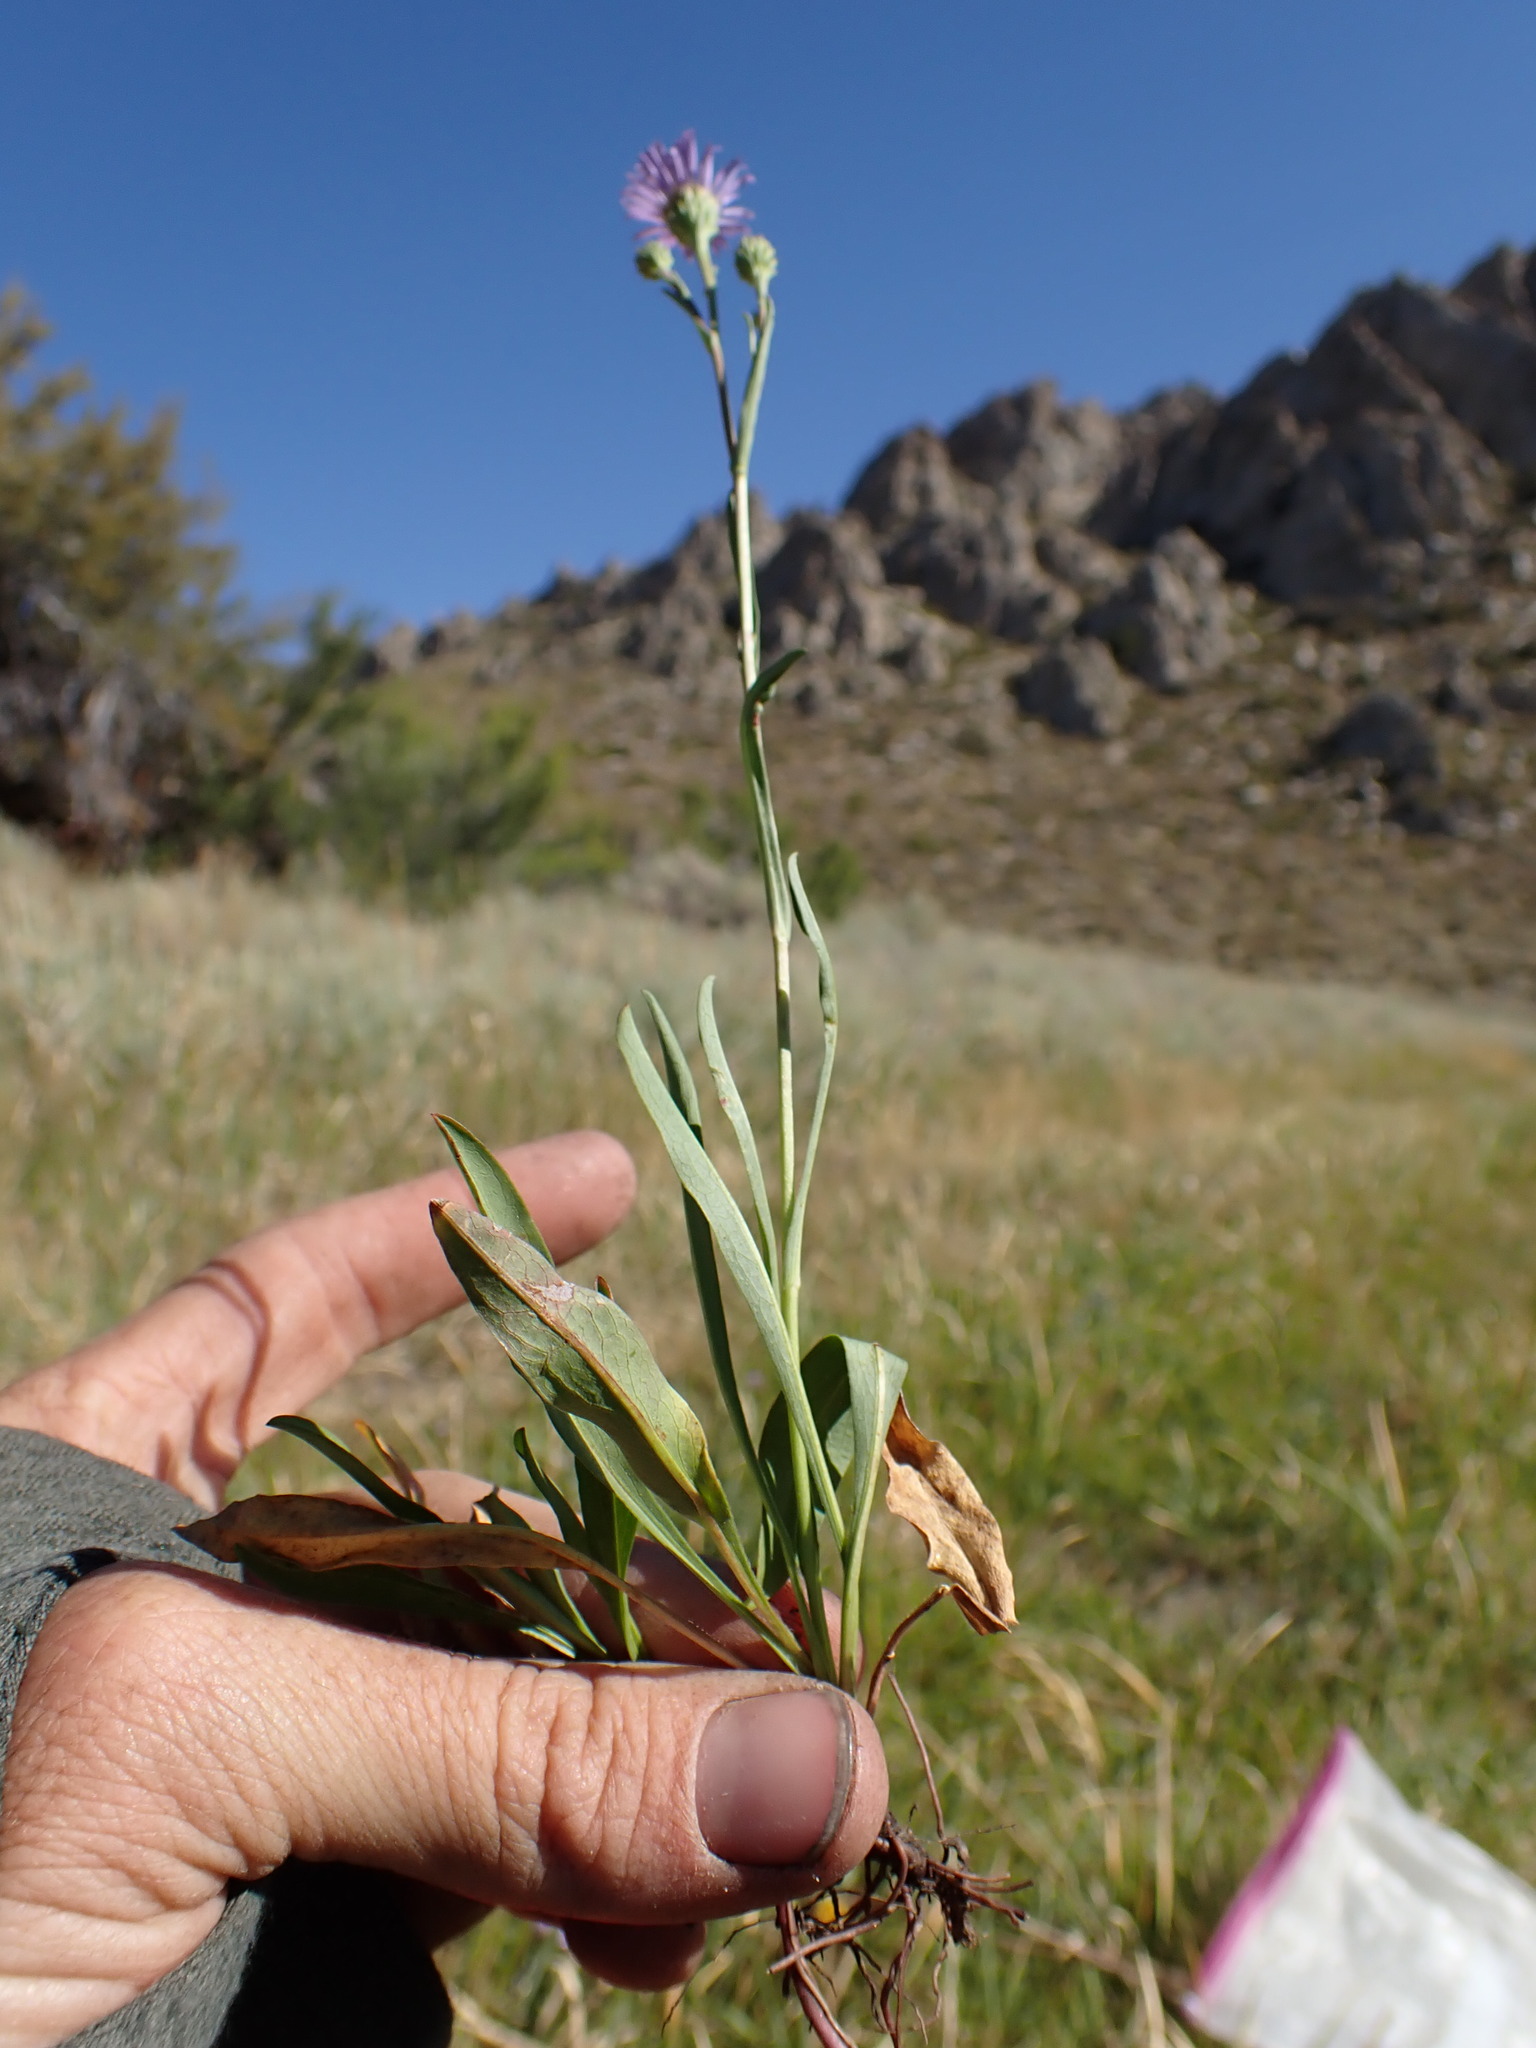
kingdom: Plantae
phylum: Tracheophyta
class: Magnoliopsida
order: Asterales
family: Asteraceae
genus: Symphyotrichum
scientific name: Symphyotrichum spathulatum
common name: Western mountain aster
